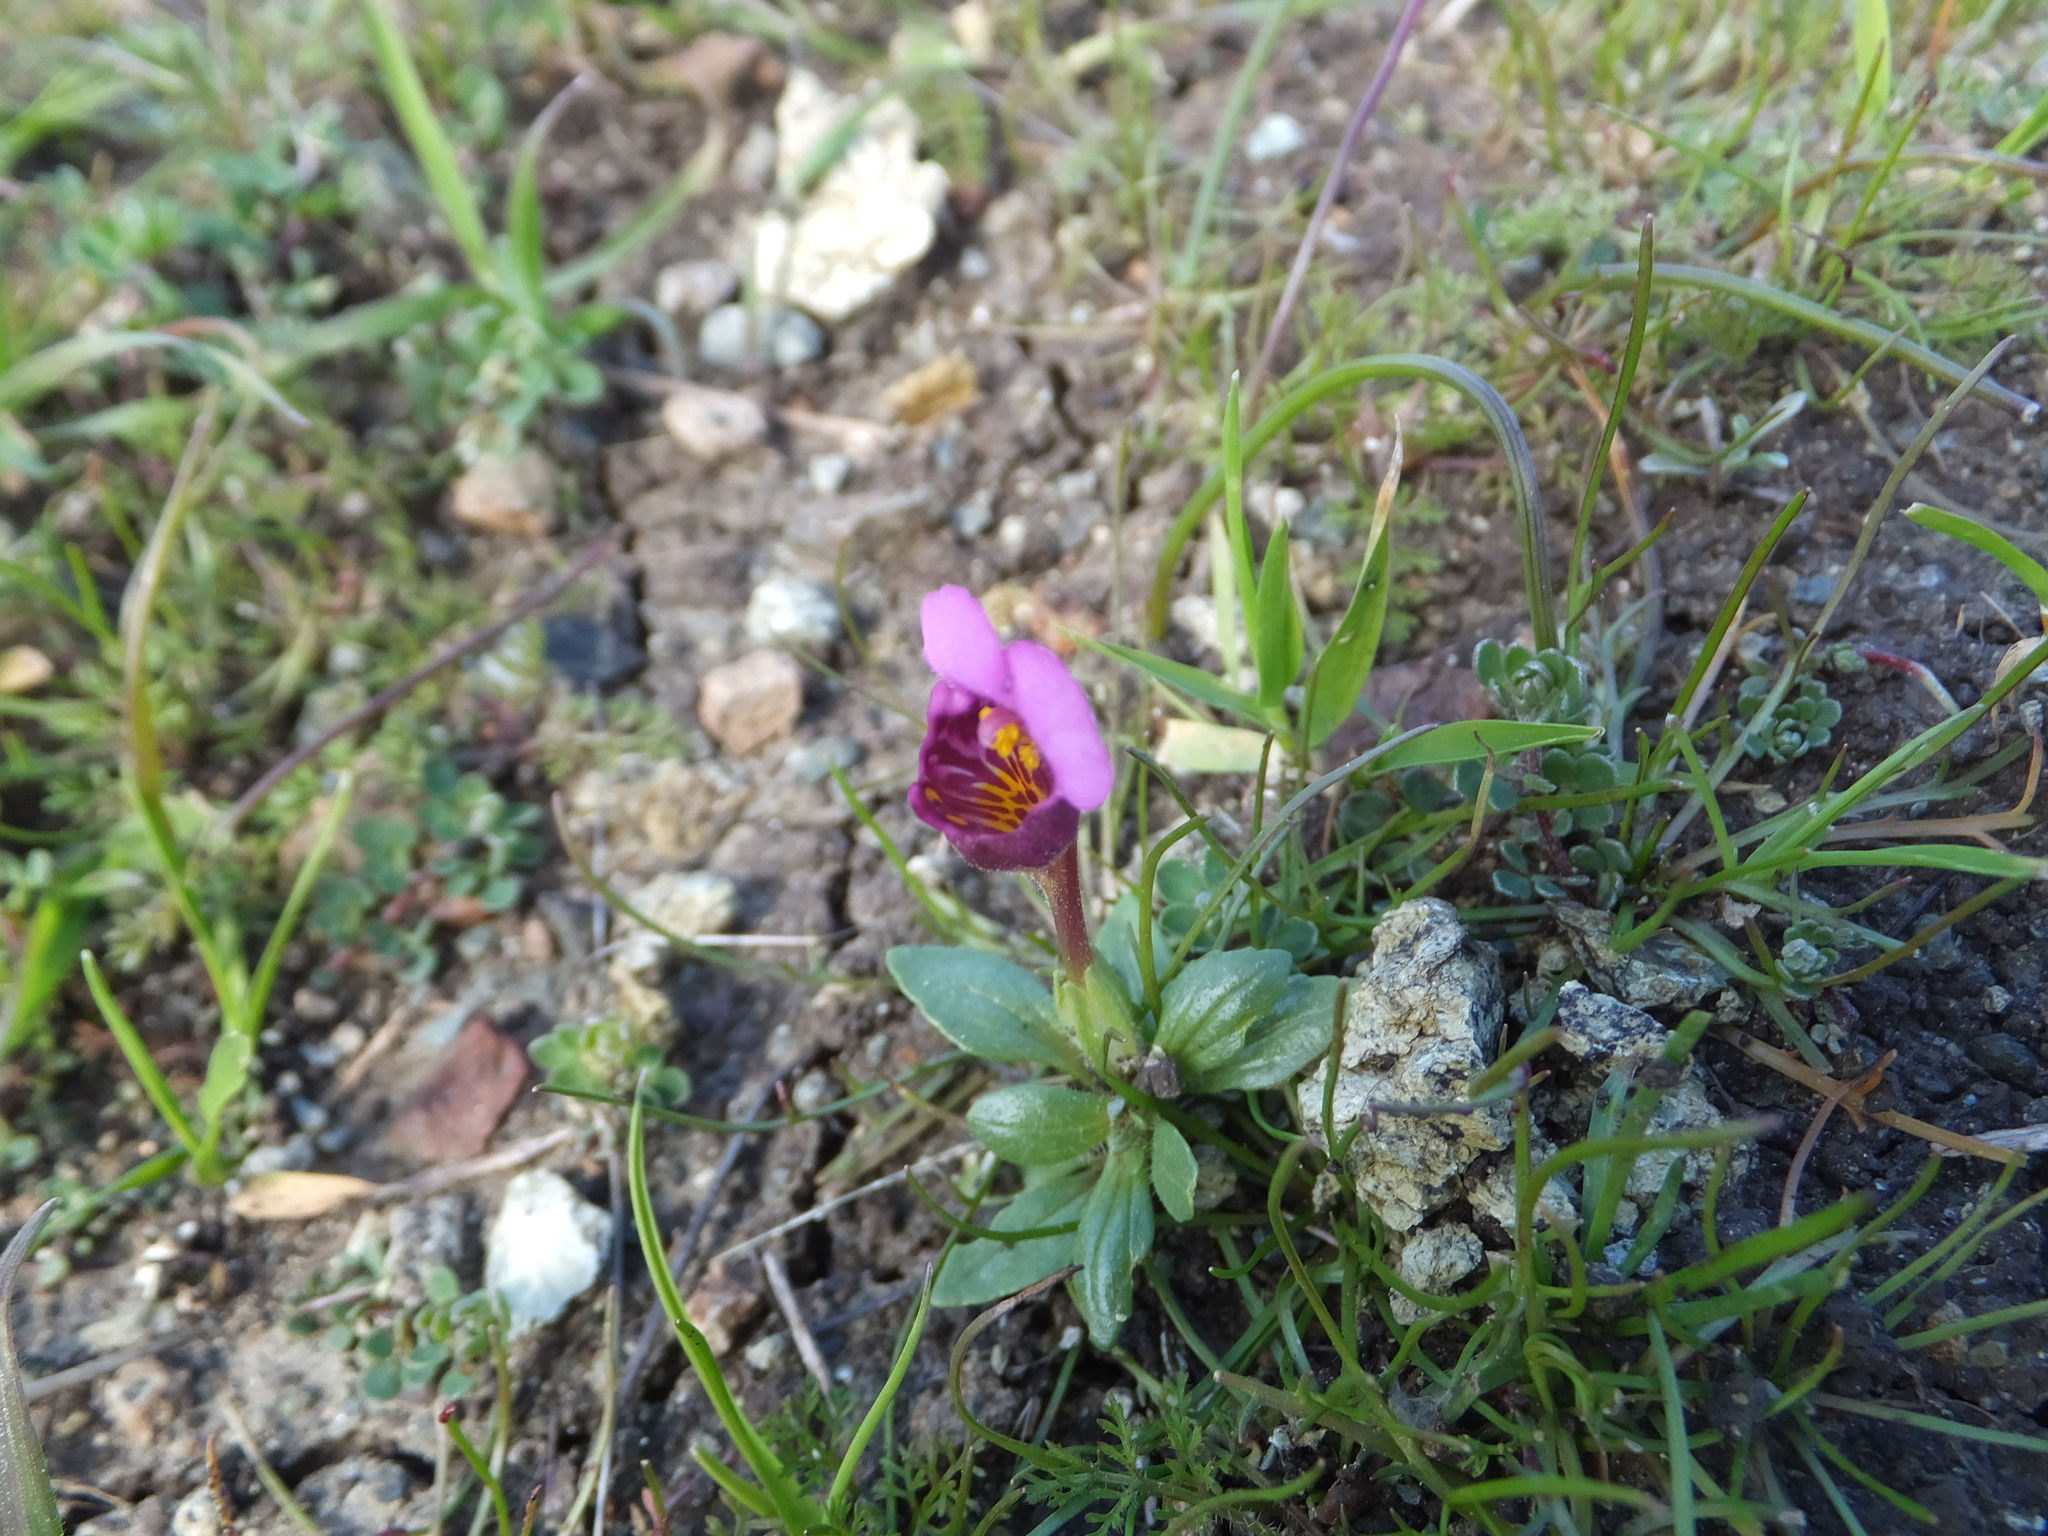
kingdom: Plantae
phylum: Tracheophyta
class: Magnoliopsida
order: Lamiales
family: Phrymaceae
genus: Diplacus
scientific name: Diplacus douglasii
